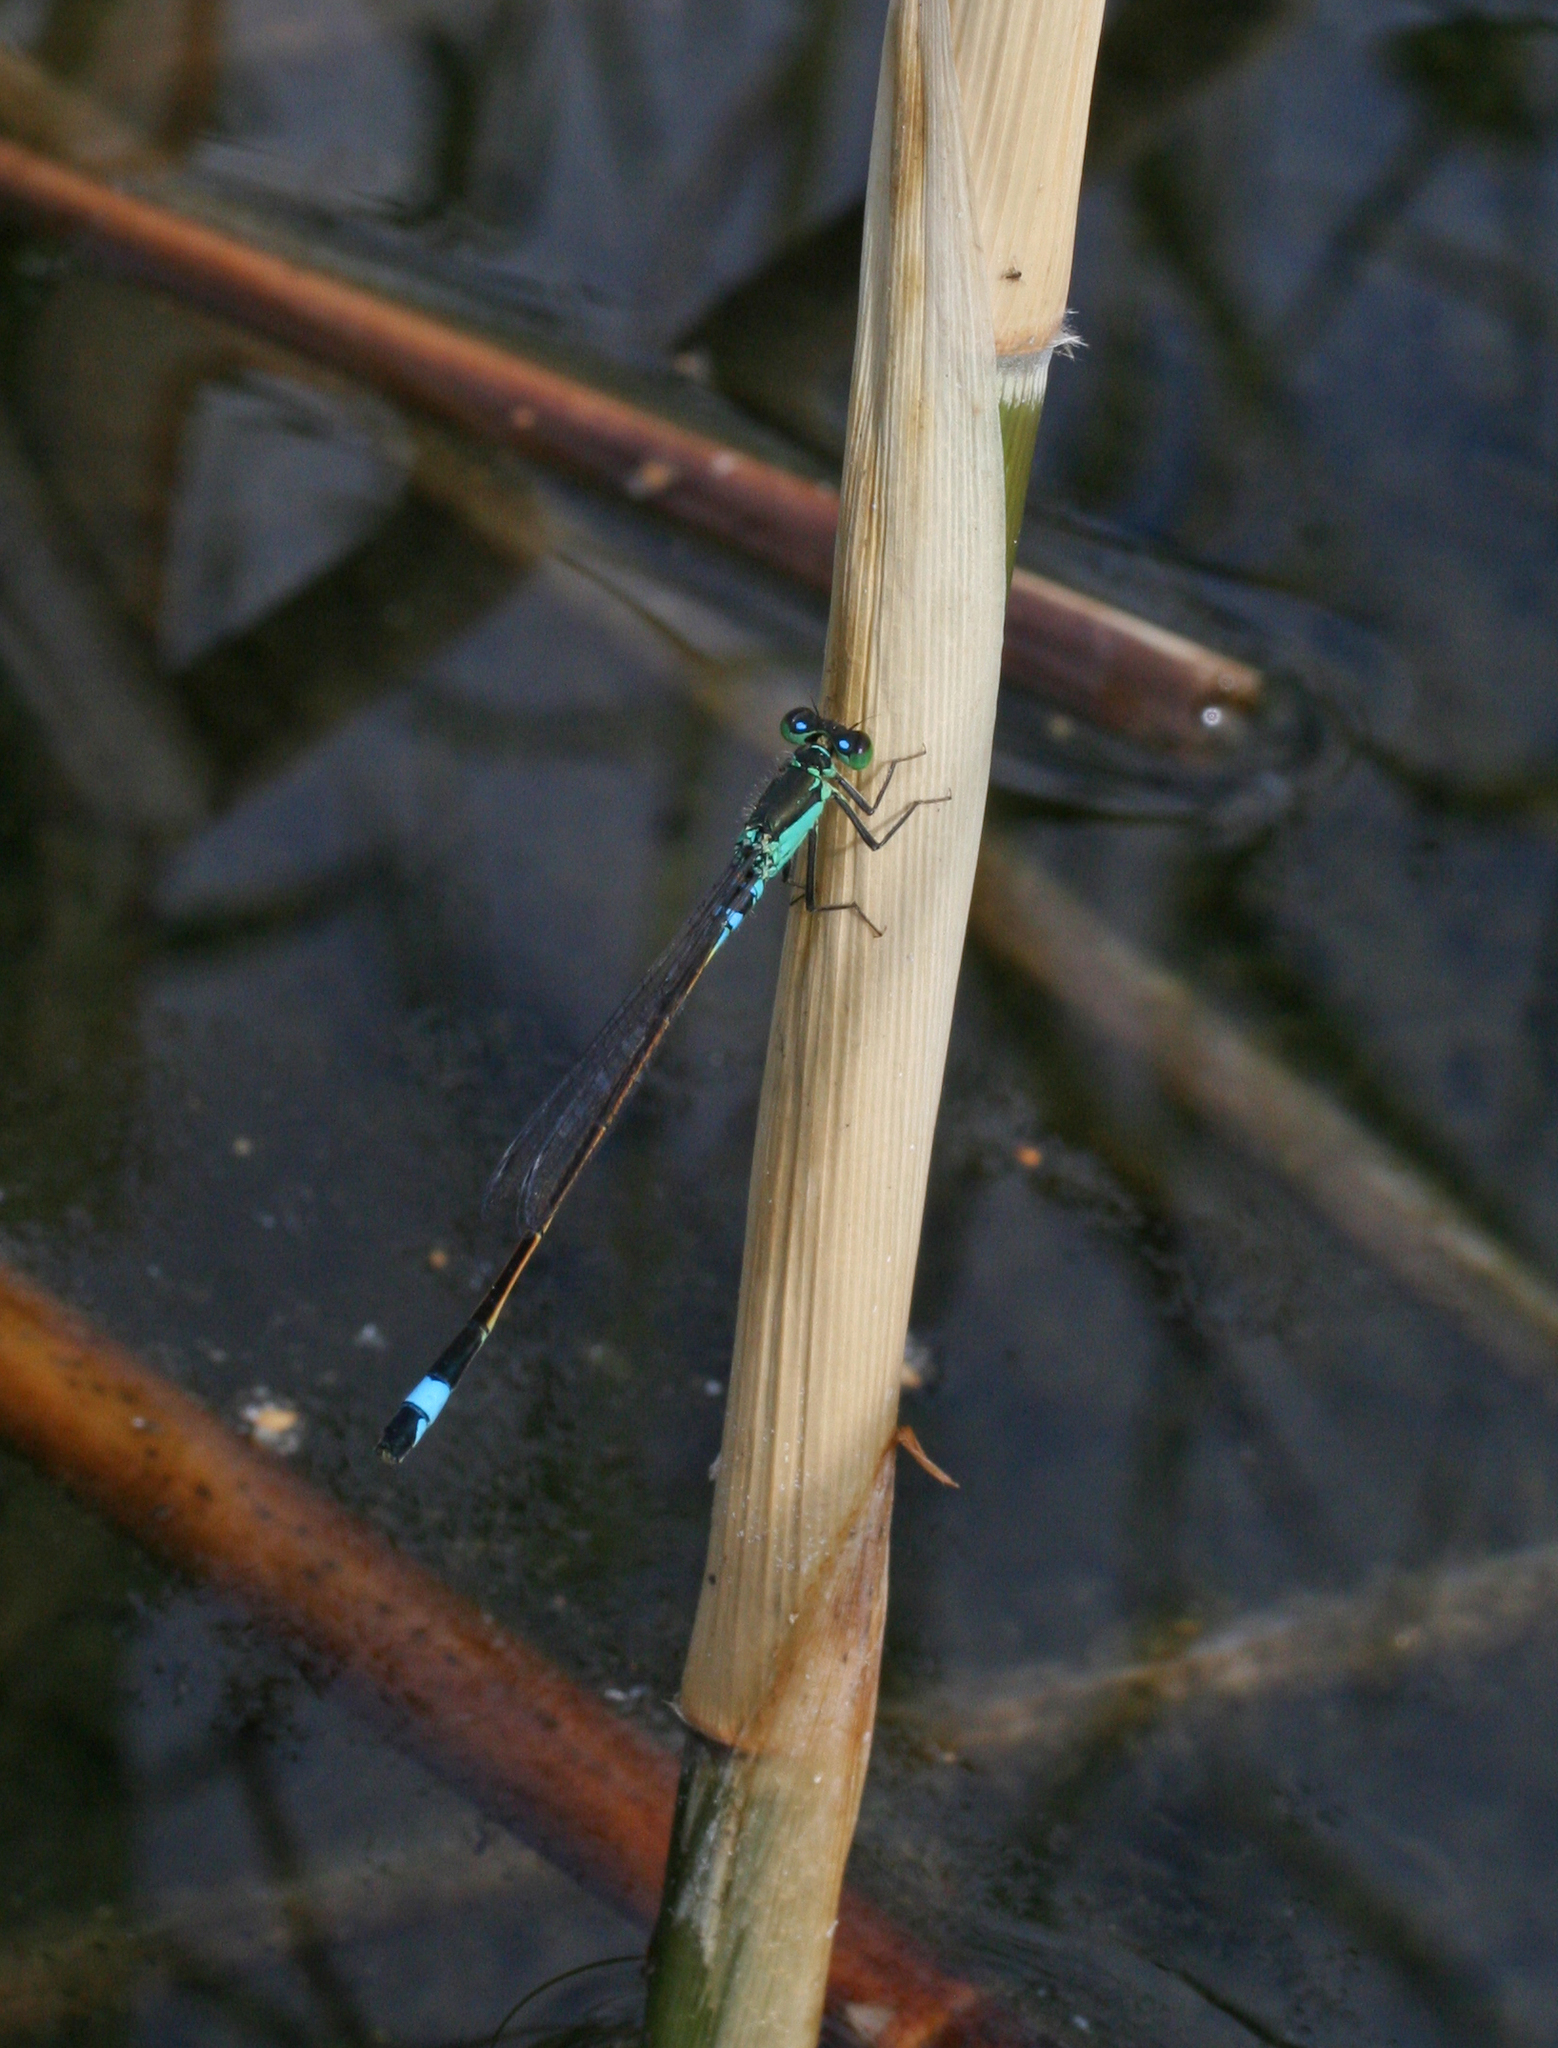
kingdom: Animalia
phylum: Arthropoda
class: Insecta
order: Odonata
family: Coenagrionidae
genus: Ischnura
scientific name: Ischnura aralensis
